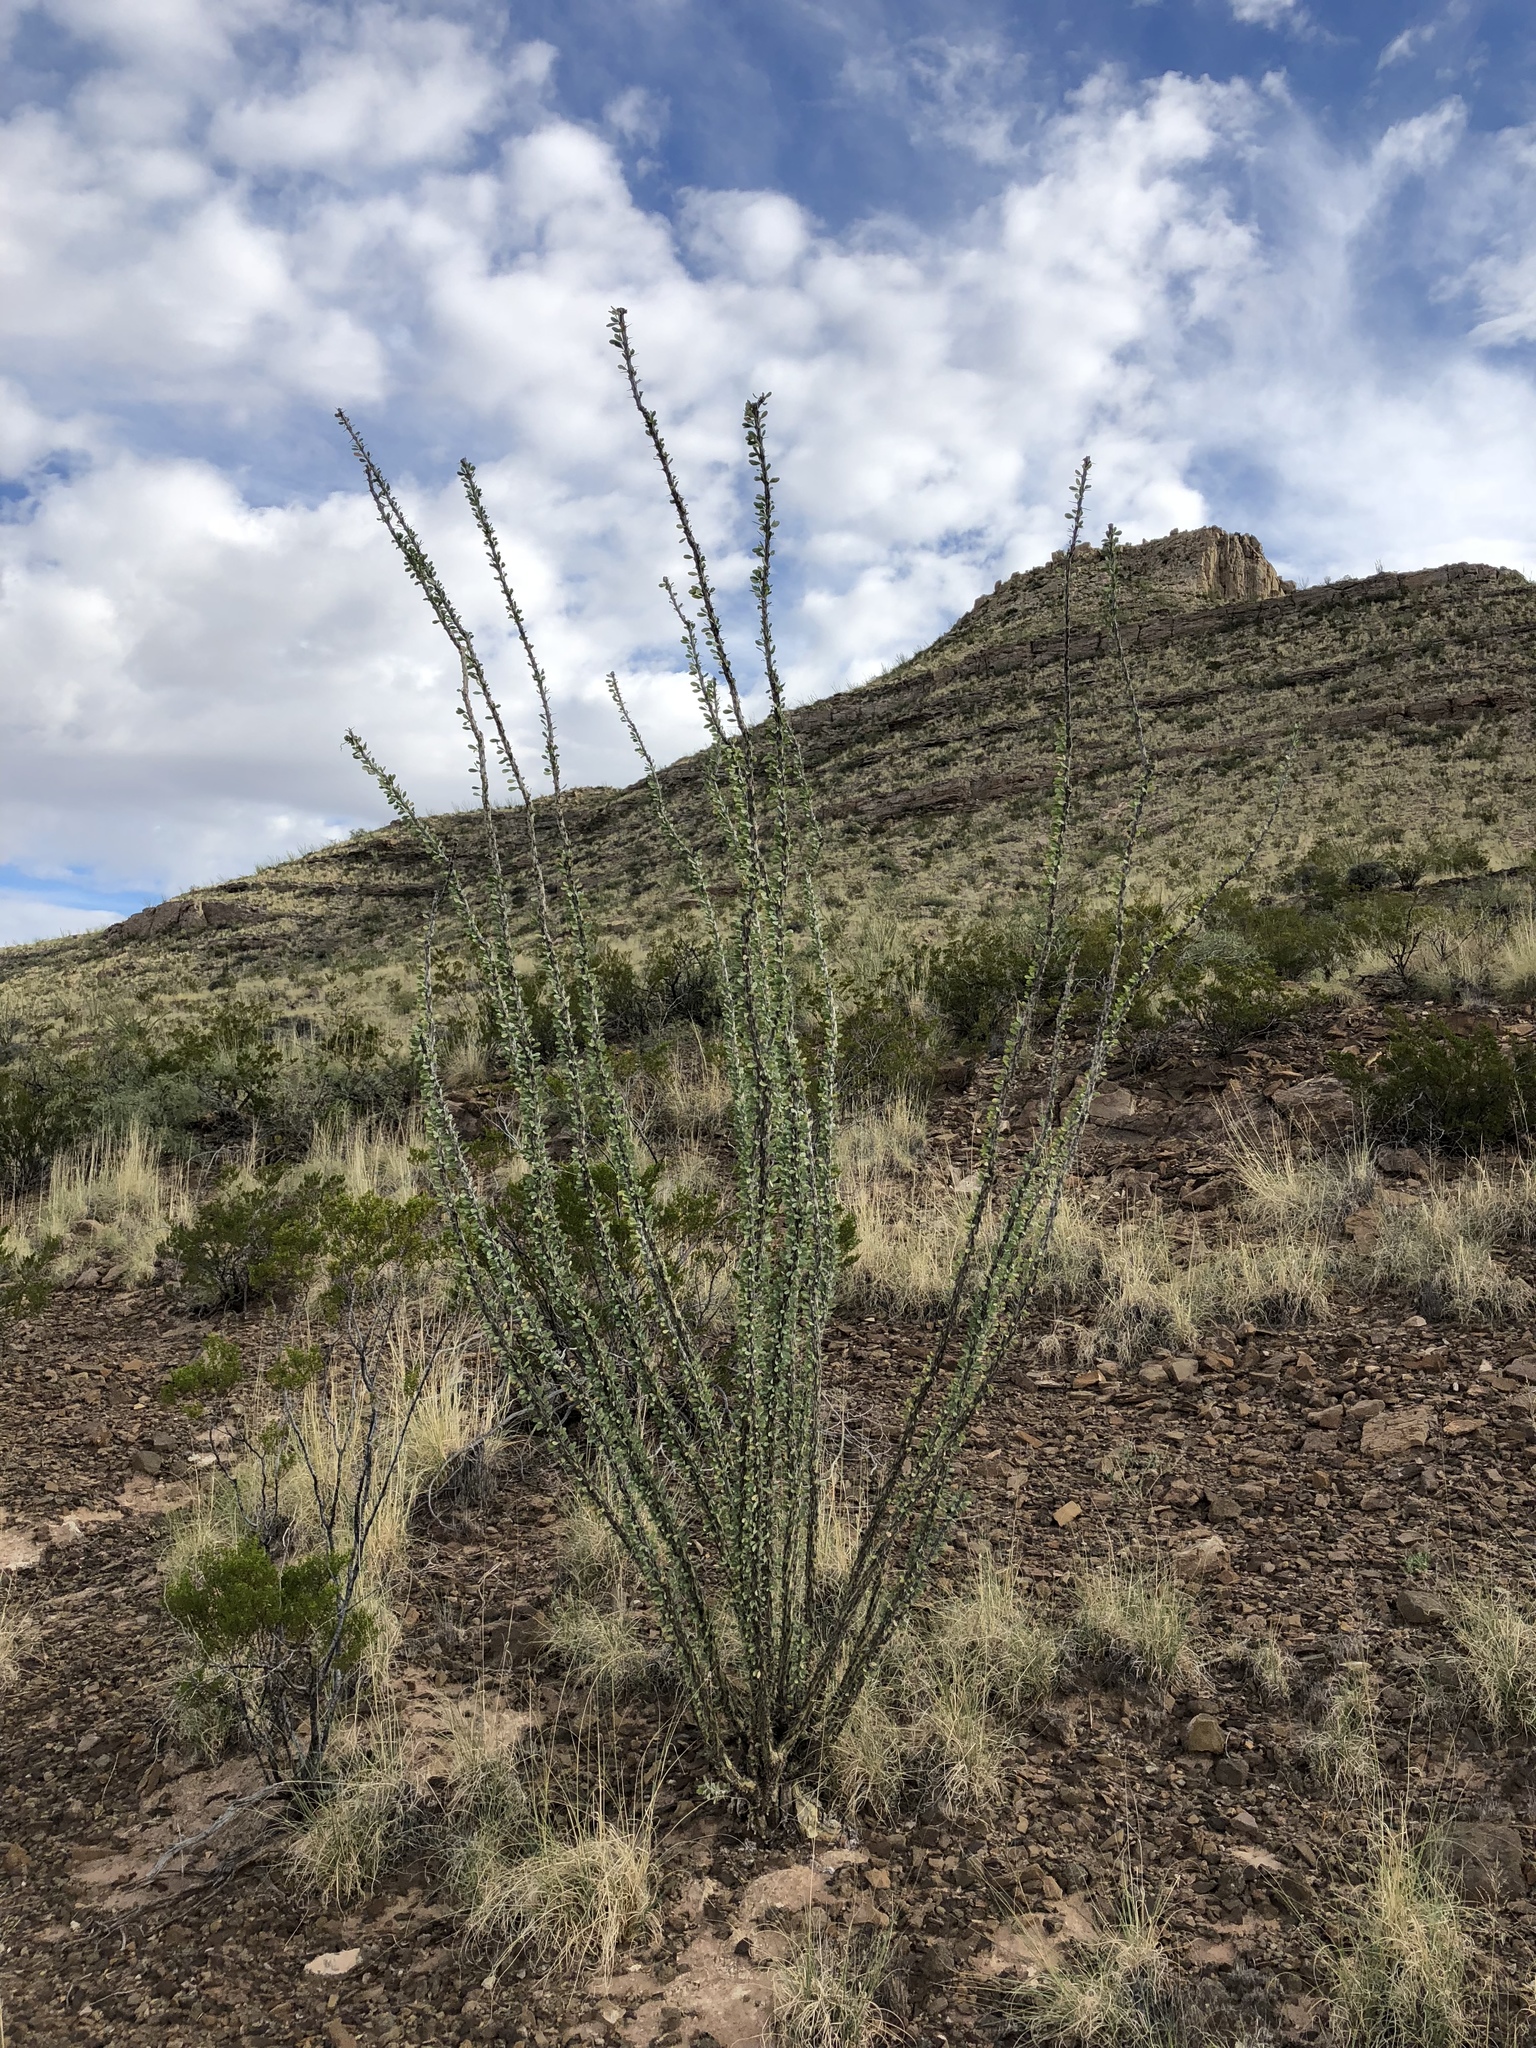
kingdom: Plantae
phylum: Tracheophyta
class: Magnoliopsida
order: Ericales
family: Fouquieriaceae
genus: Fouquieria
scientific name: Fouquieria splendens
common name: Vine-cactus
